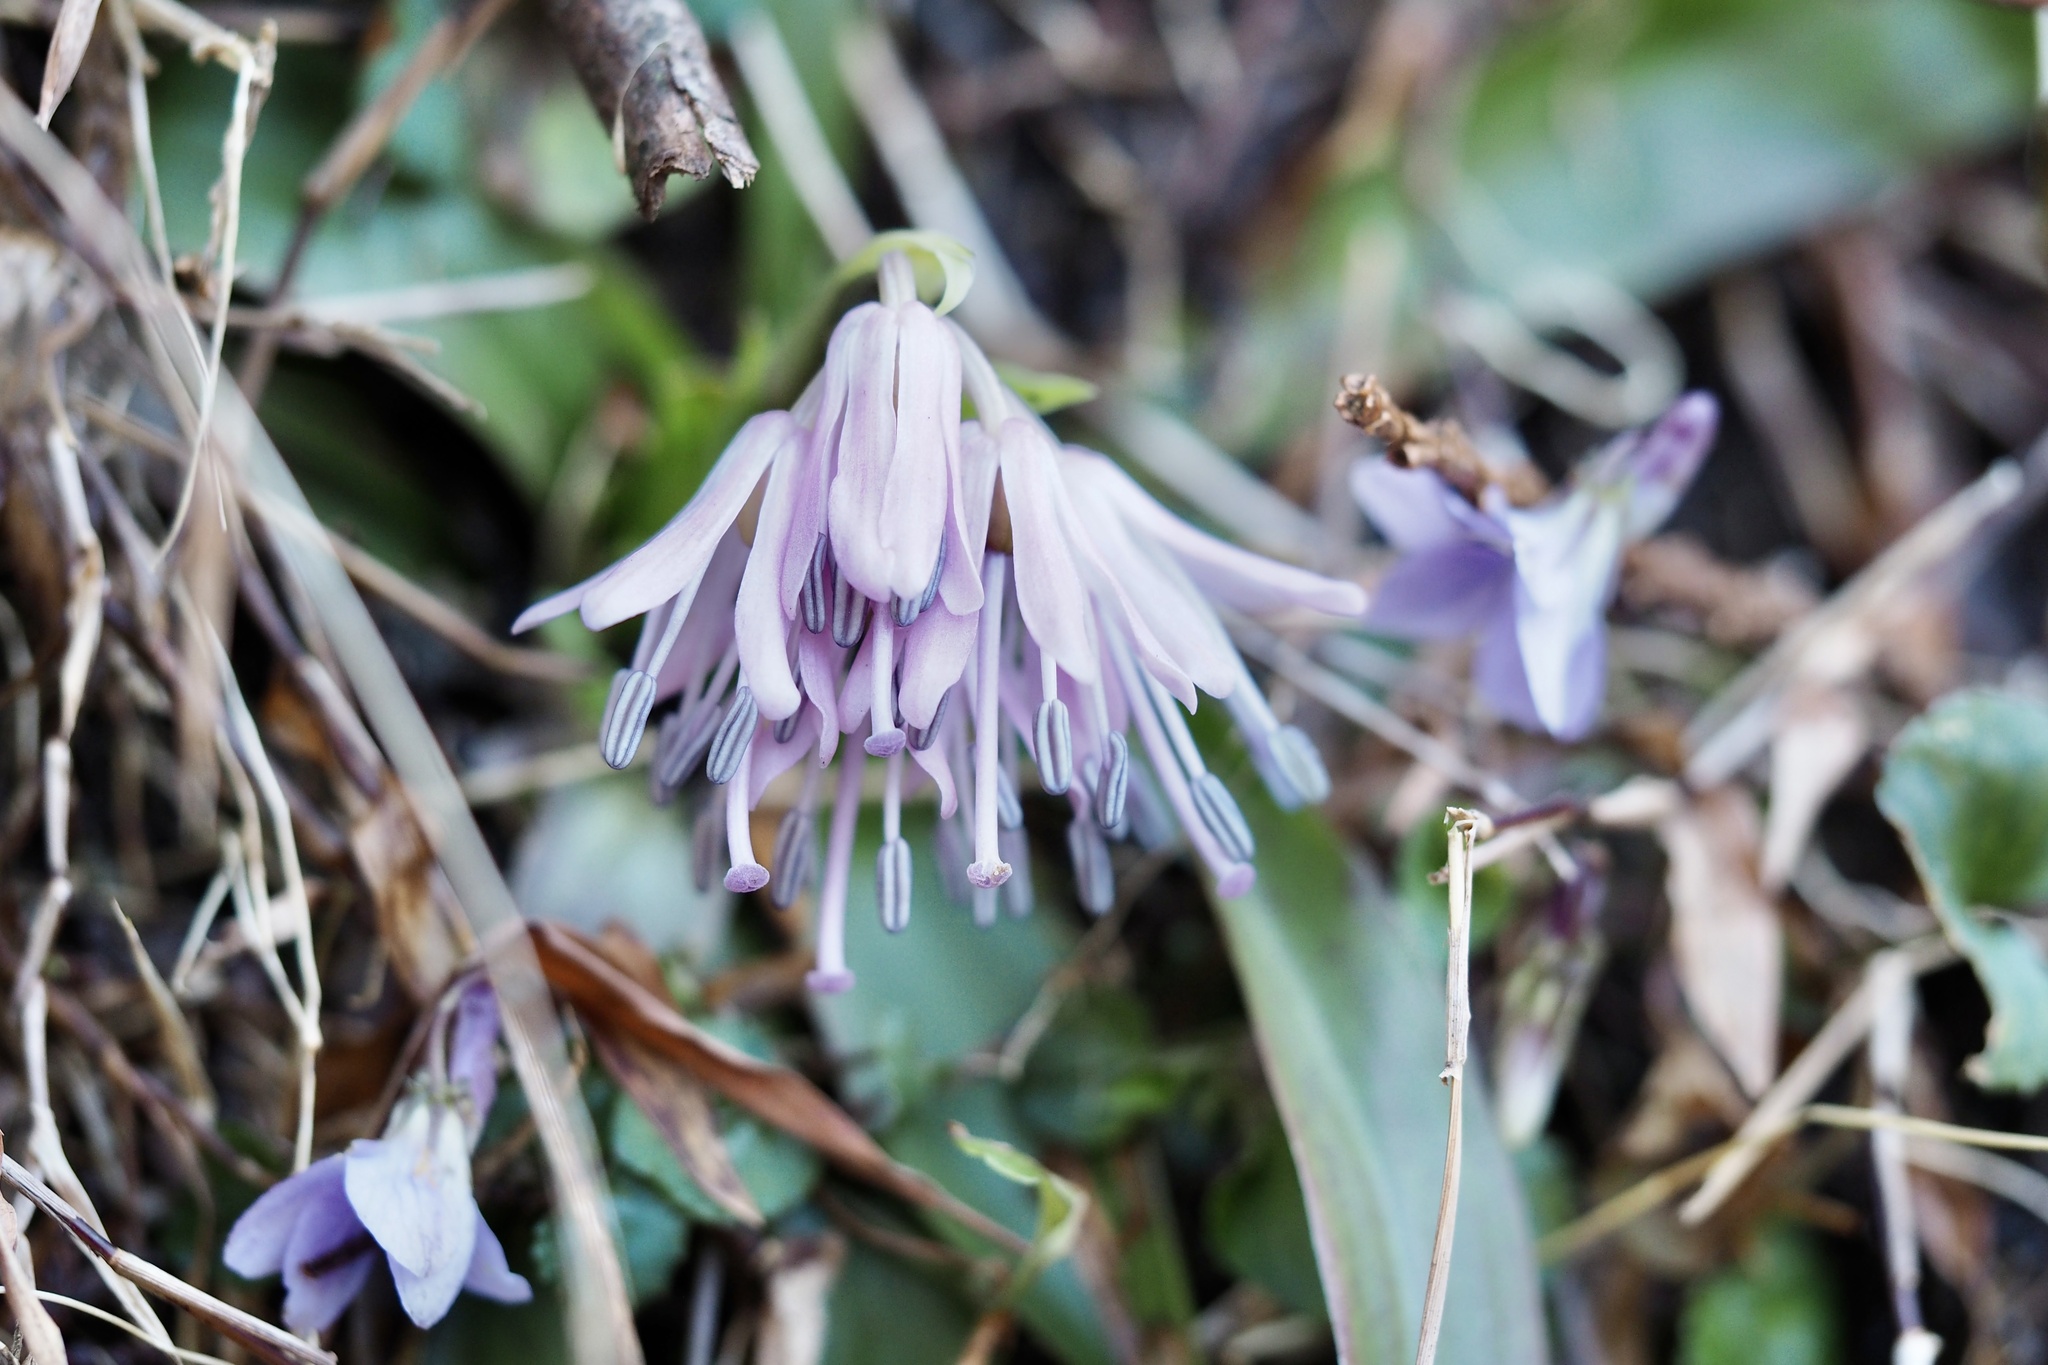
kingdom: Plantae
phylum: Tracheophyta
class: Liliopsida
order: Liliales
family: Melanthiaceae
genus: Helonias
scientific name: Helonias orientalis
